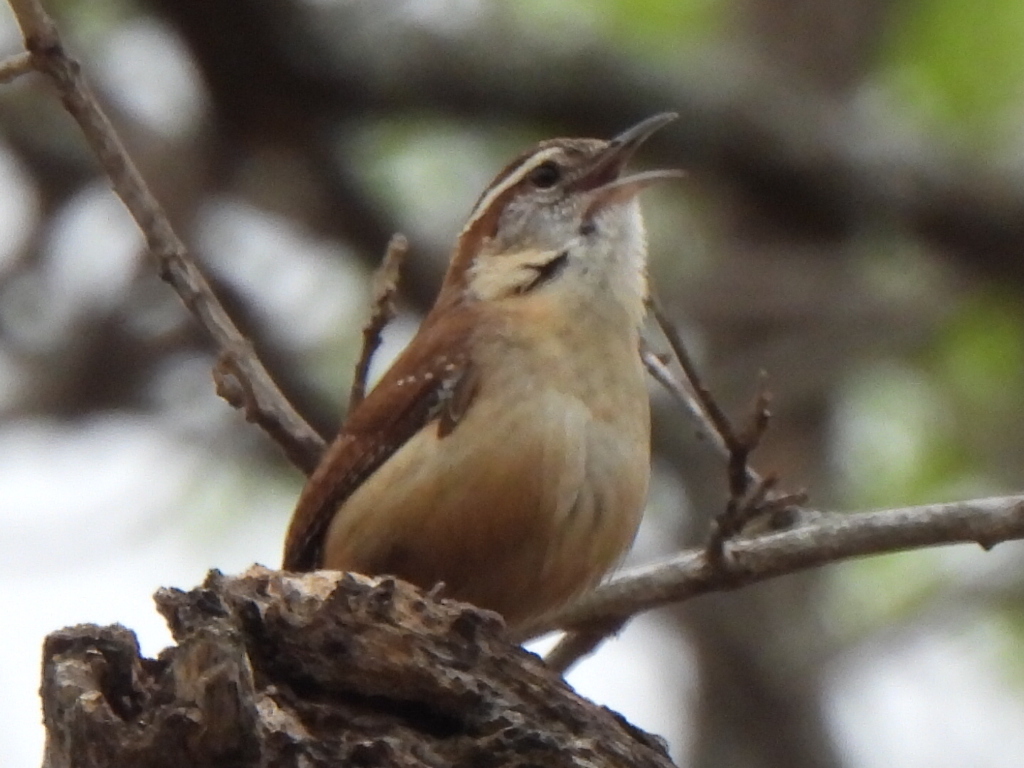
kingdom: Animalia
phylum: Chordata
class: Aves
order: Passeriformes
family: Troglodytidae
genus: Thryothorus
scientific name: Thryothorus ludovicianus
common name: Carolina wren
